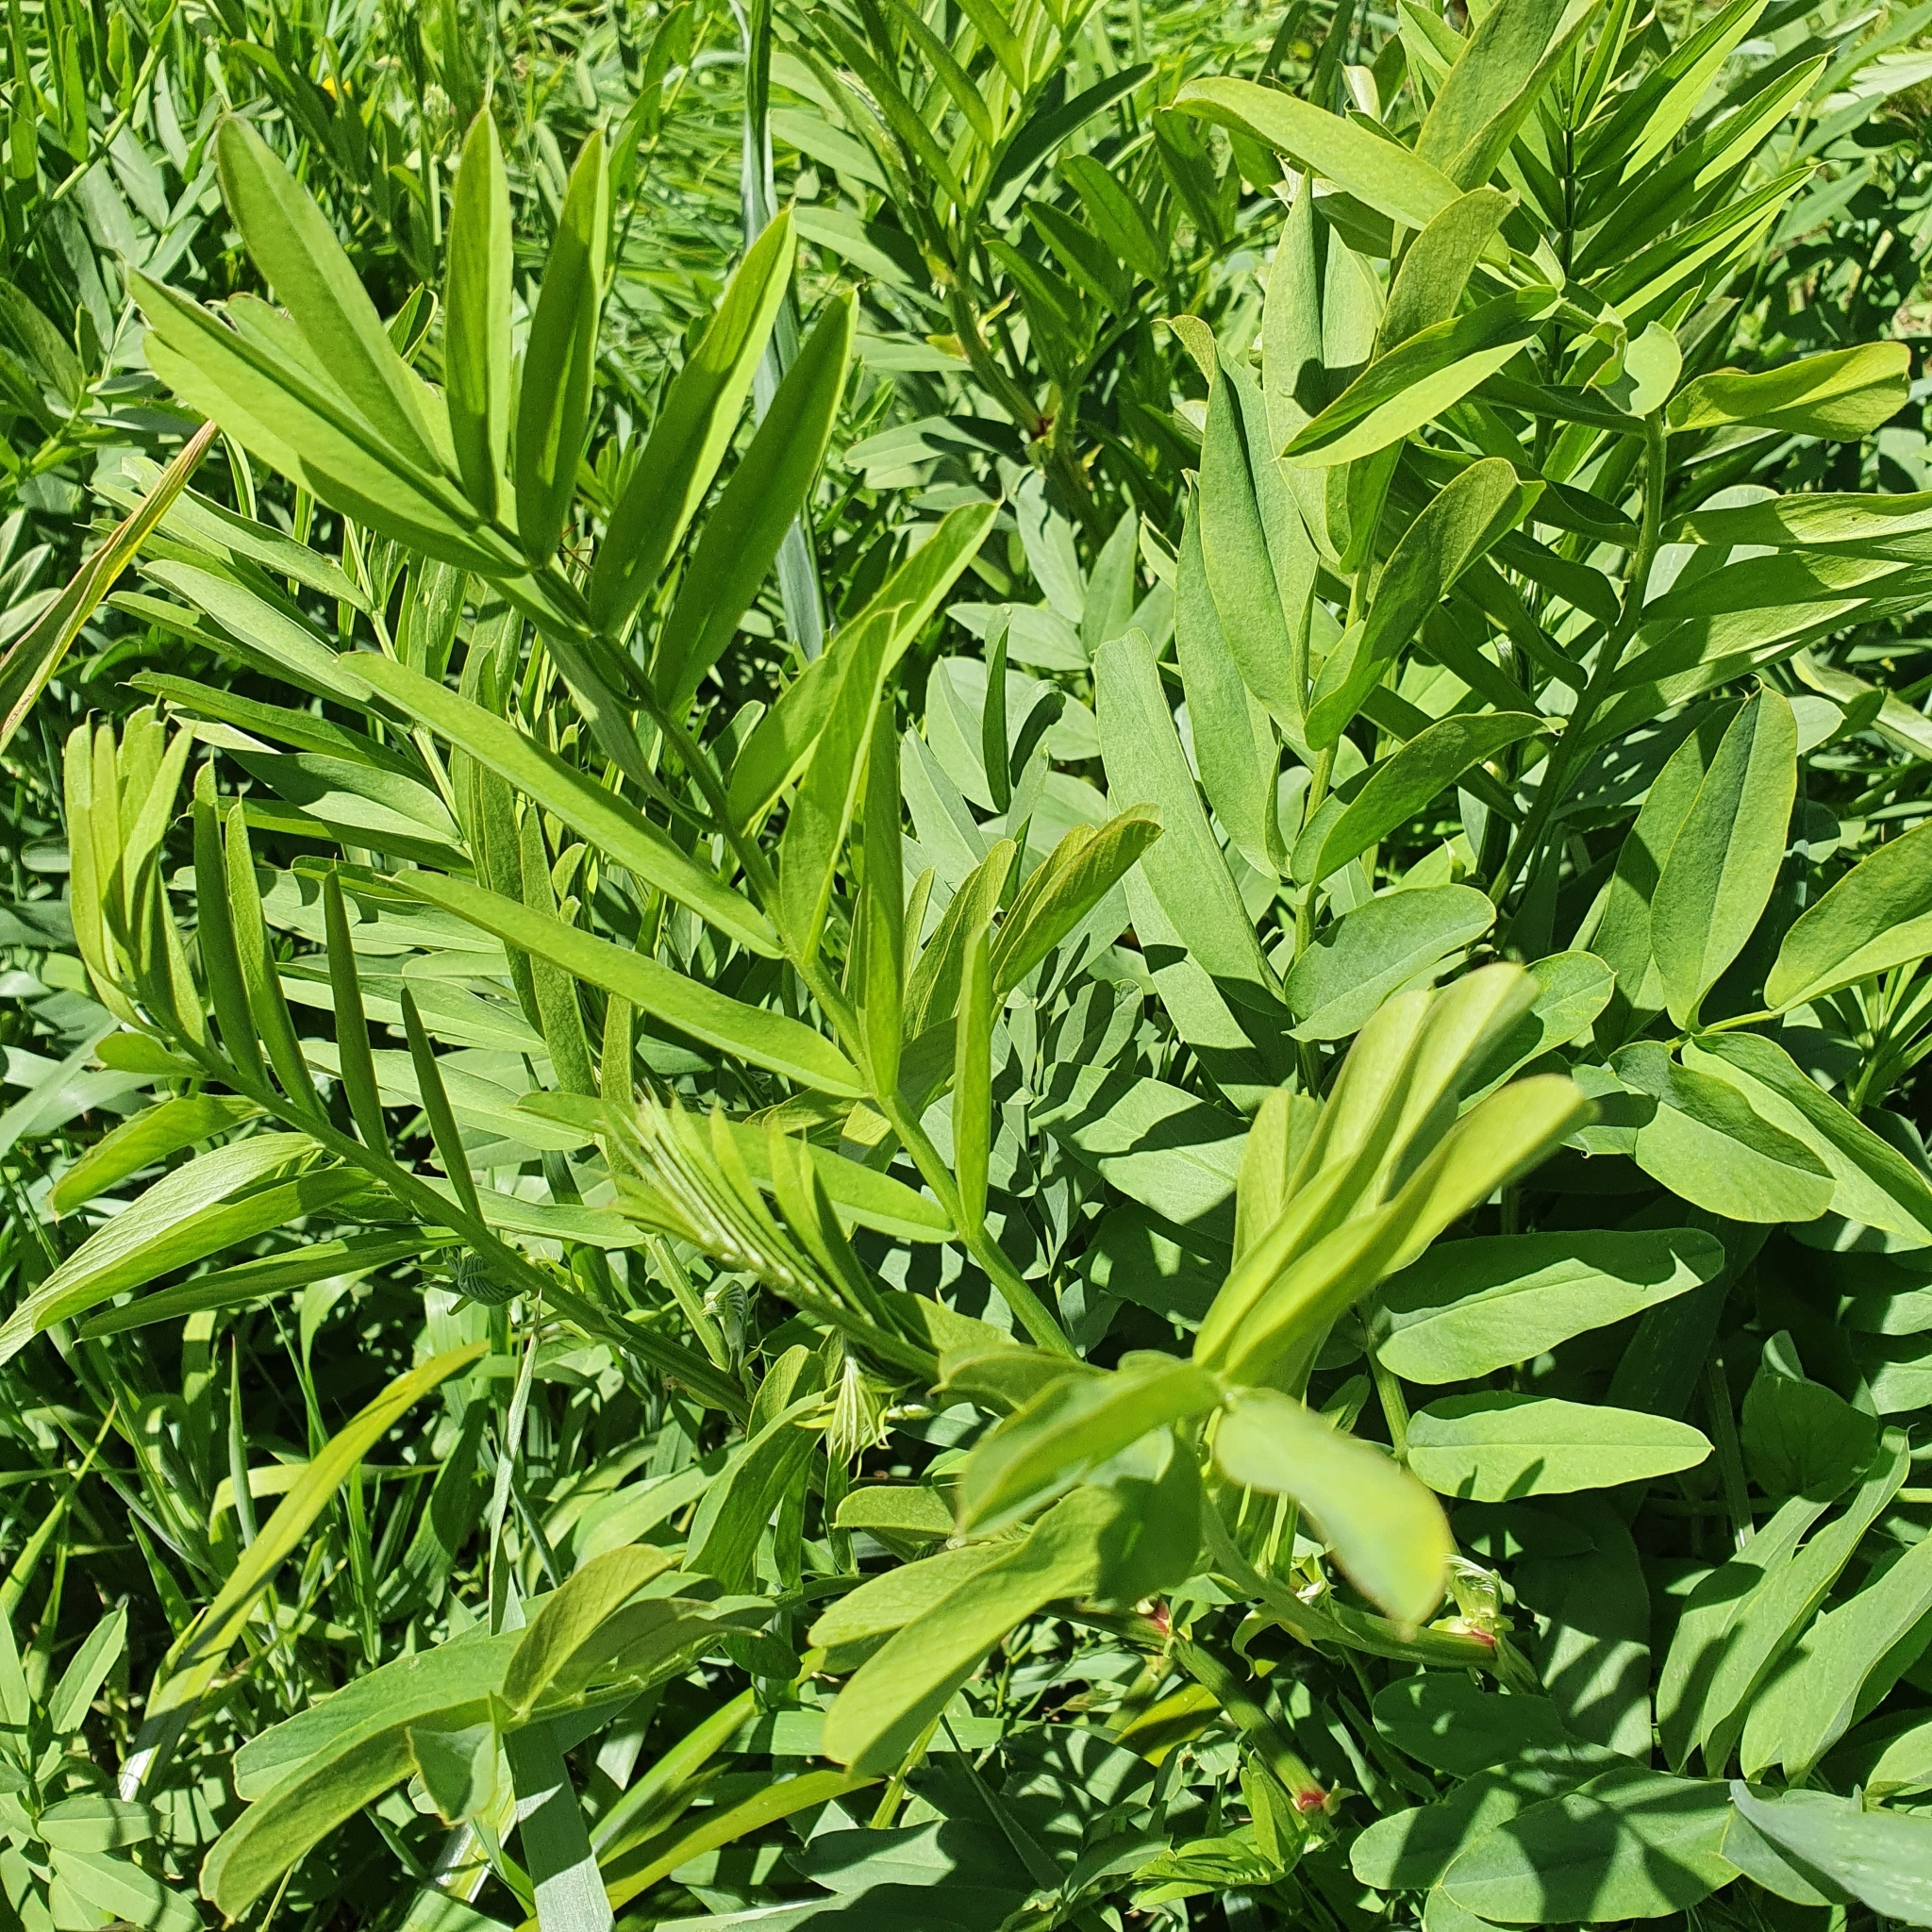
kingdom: Plantae
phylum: Tracheophyta
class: Magnoliopsida
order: Fabales
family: Fabaceae
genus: Galega
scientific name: Galega officinalis
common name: Goat's-rue
